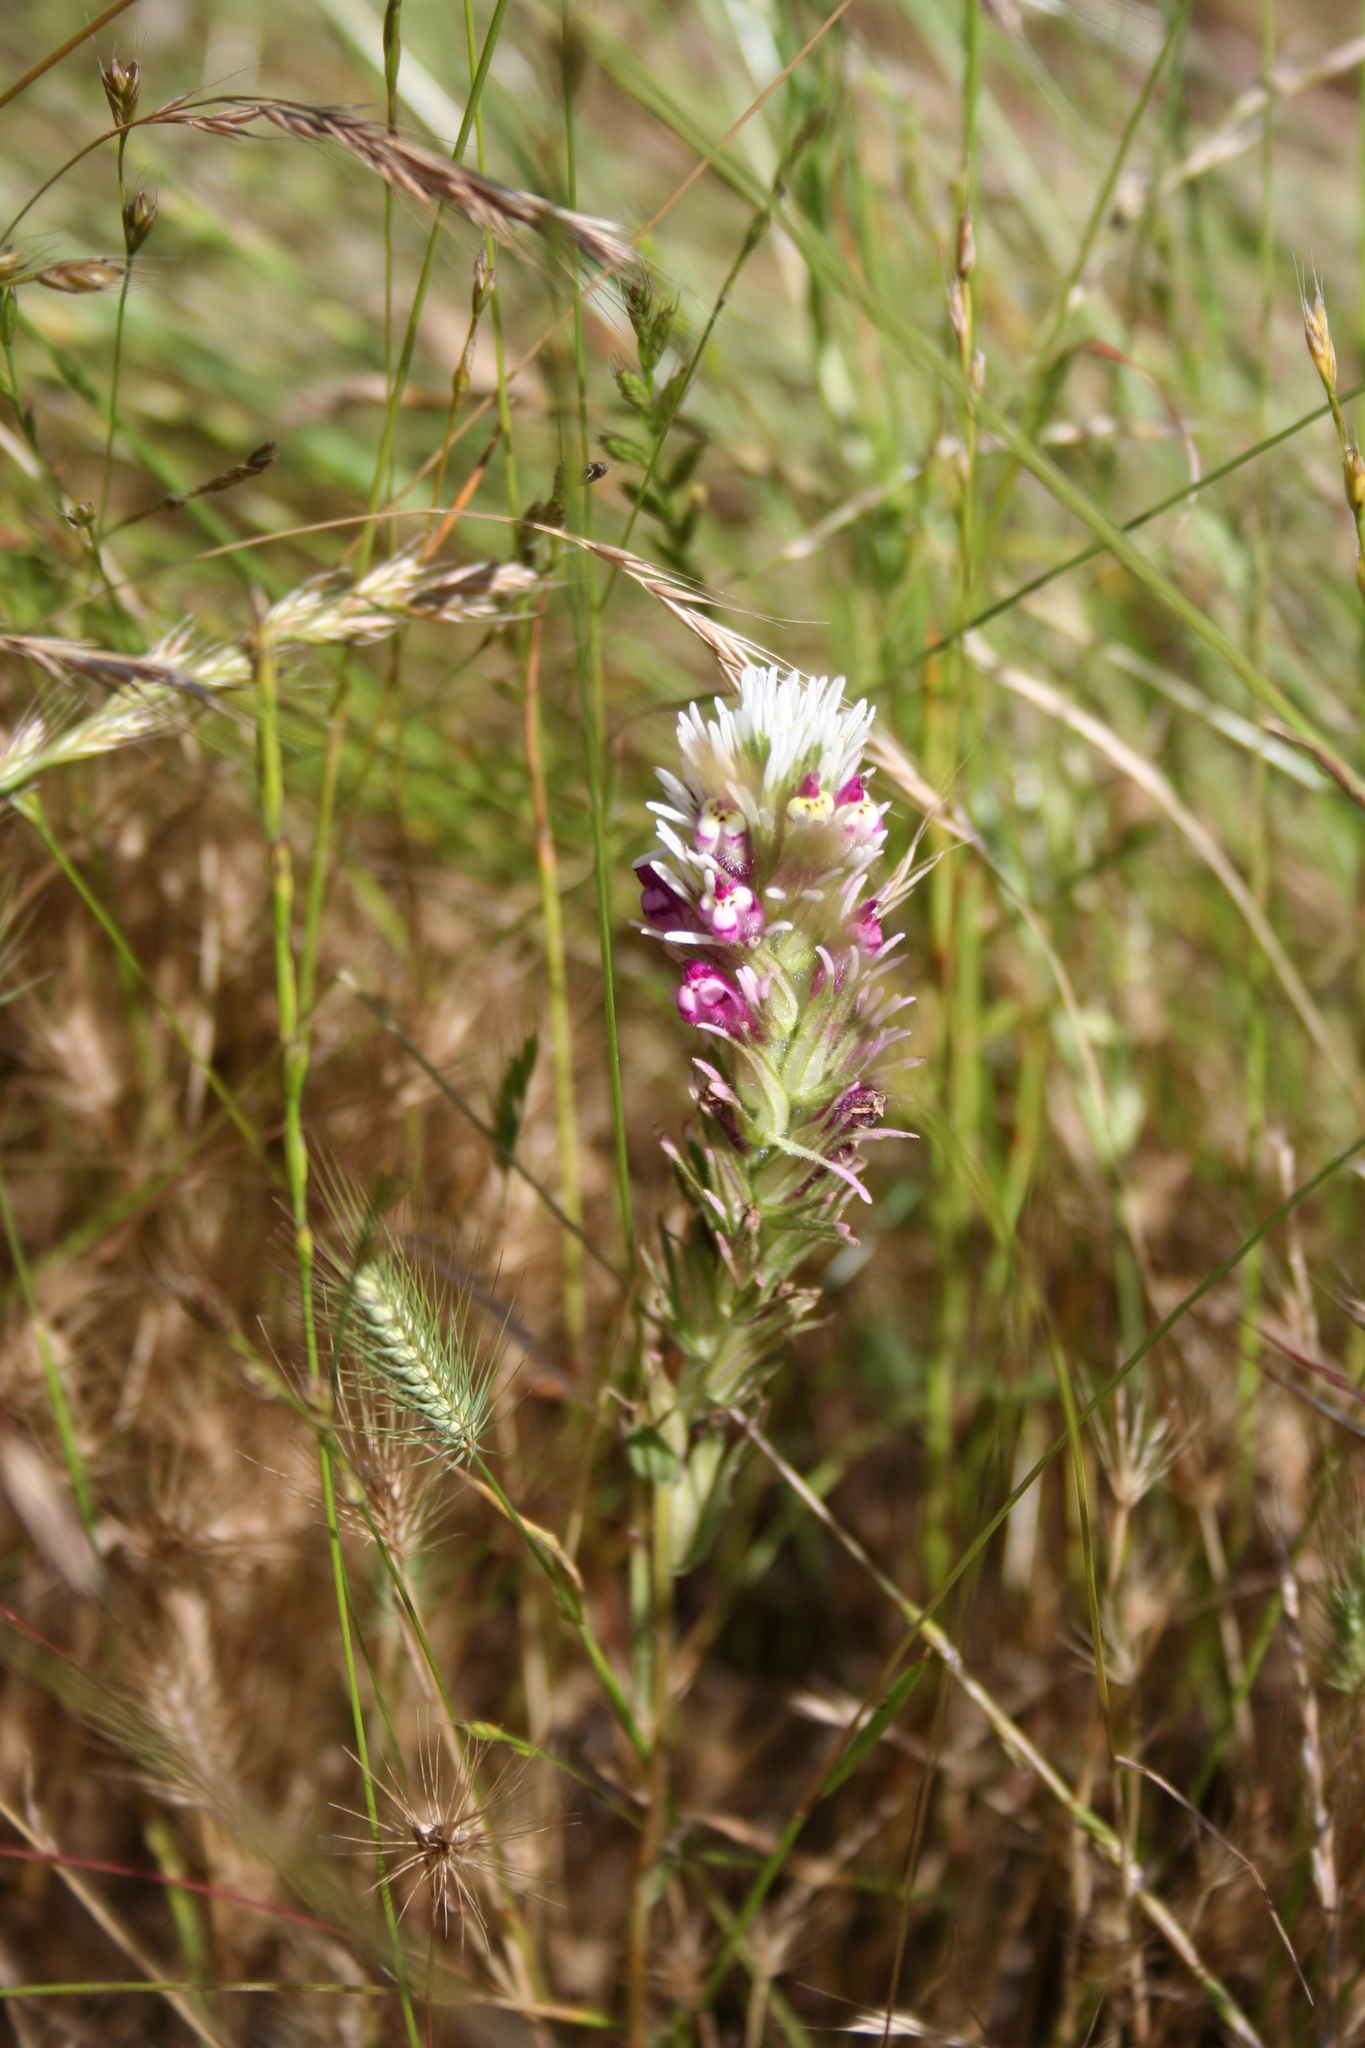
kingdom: Plantae
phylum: Tracheophyta
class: Magnoliopsida
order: Lamiales
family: Orobanchaceae
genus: Castilleja
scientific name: Castilleja densiflora
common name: Dense-flower indian paintbrush
